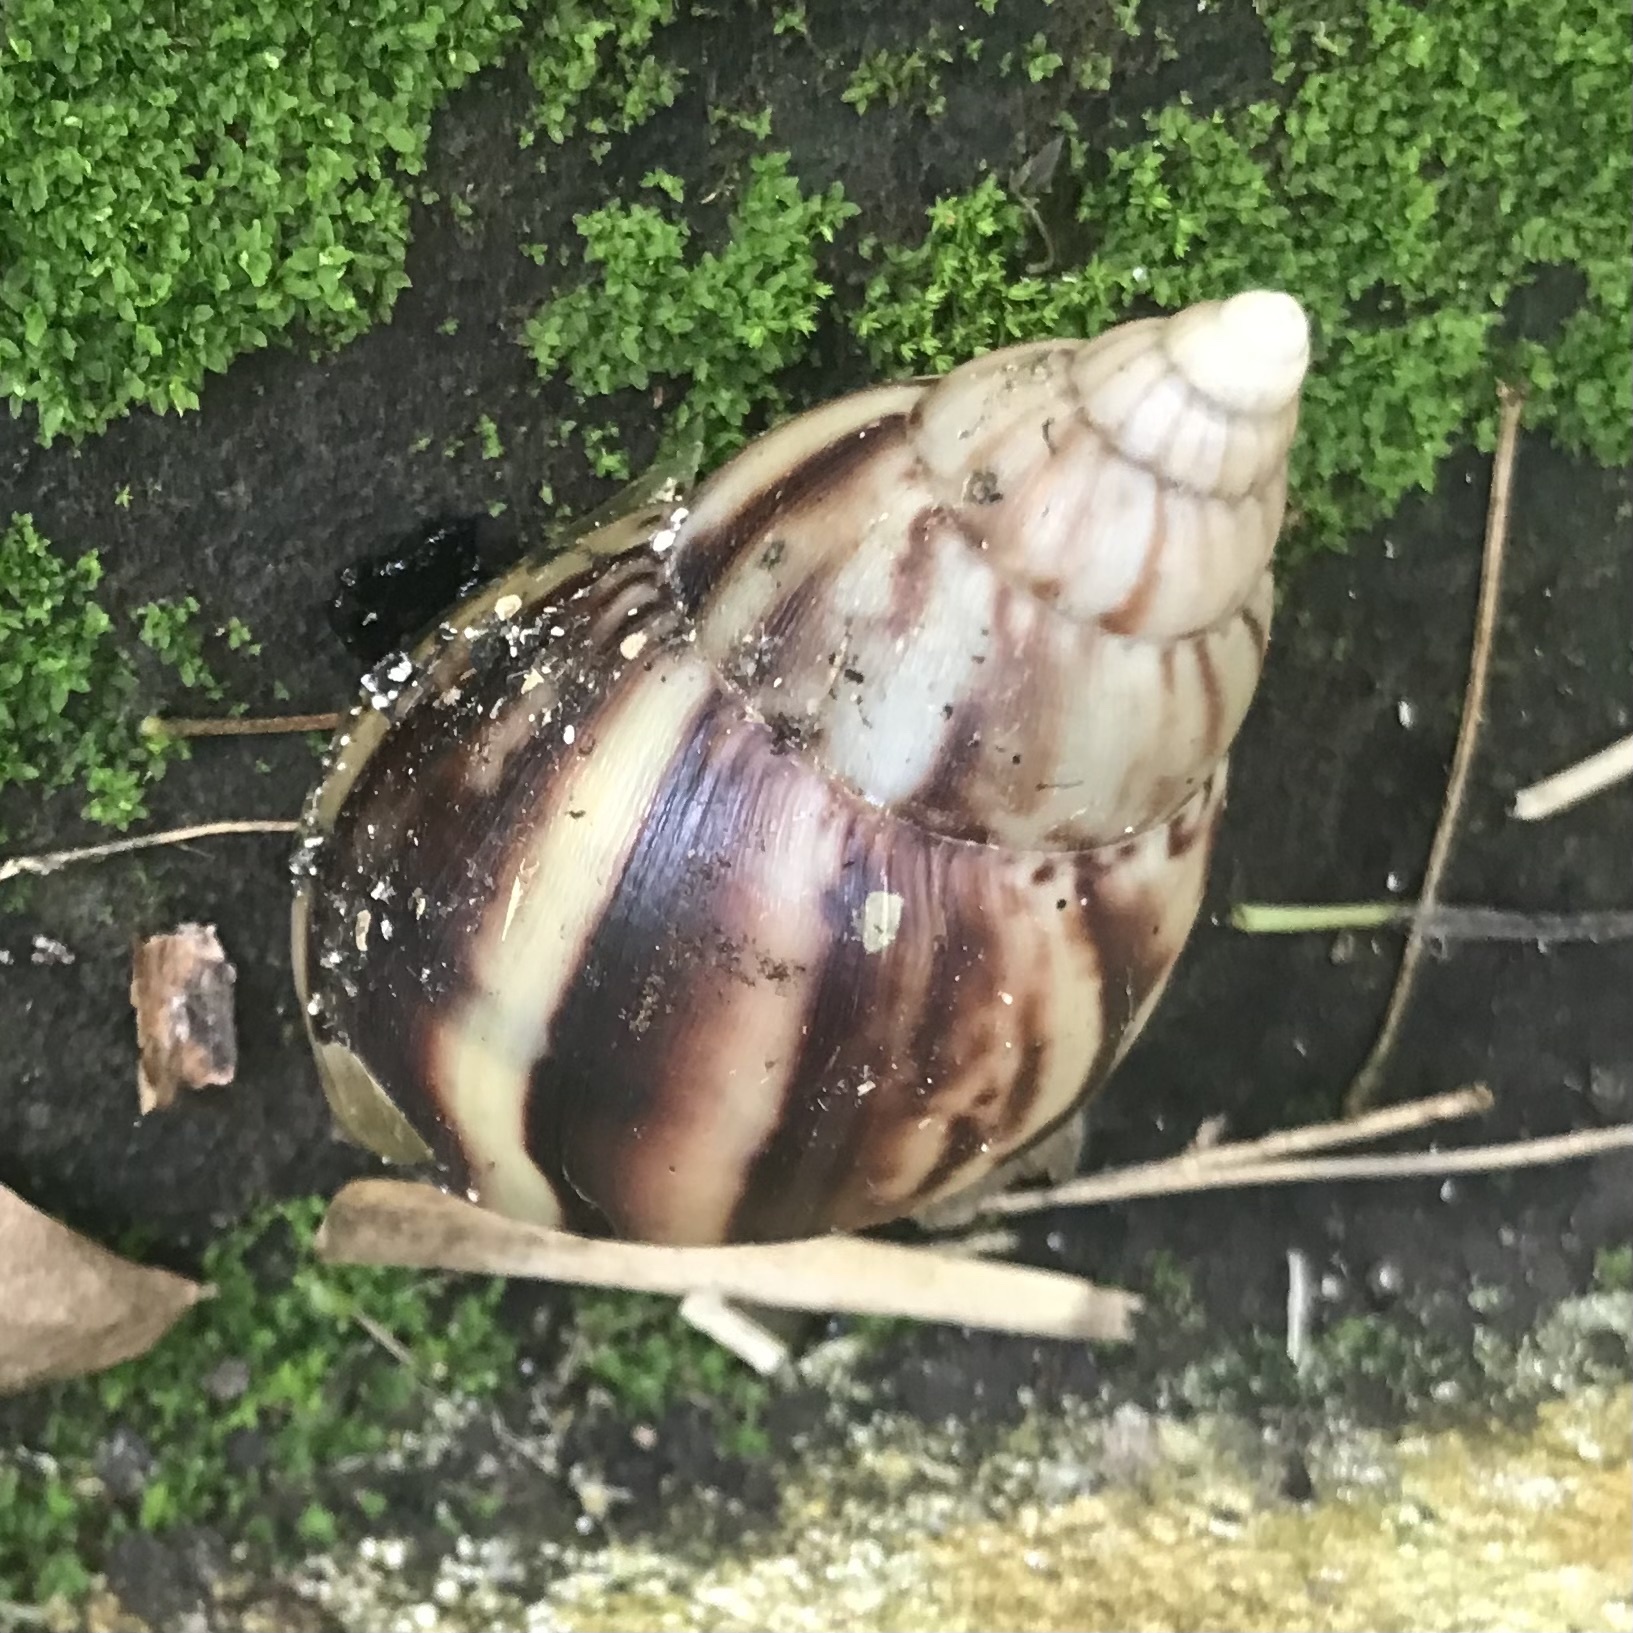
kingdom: Animalia
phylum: Mollusca
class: Gastropoda
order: Stylommatophora
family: Achatinidae
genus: Lissachatina
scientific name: Lissachatina fulica
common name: Giant african snail
